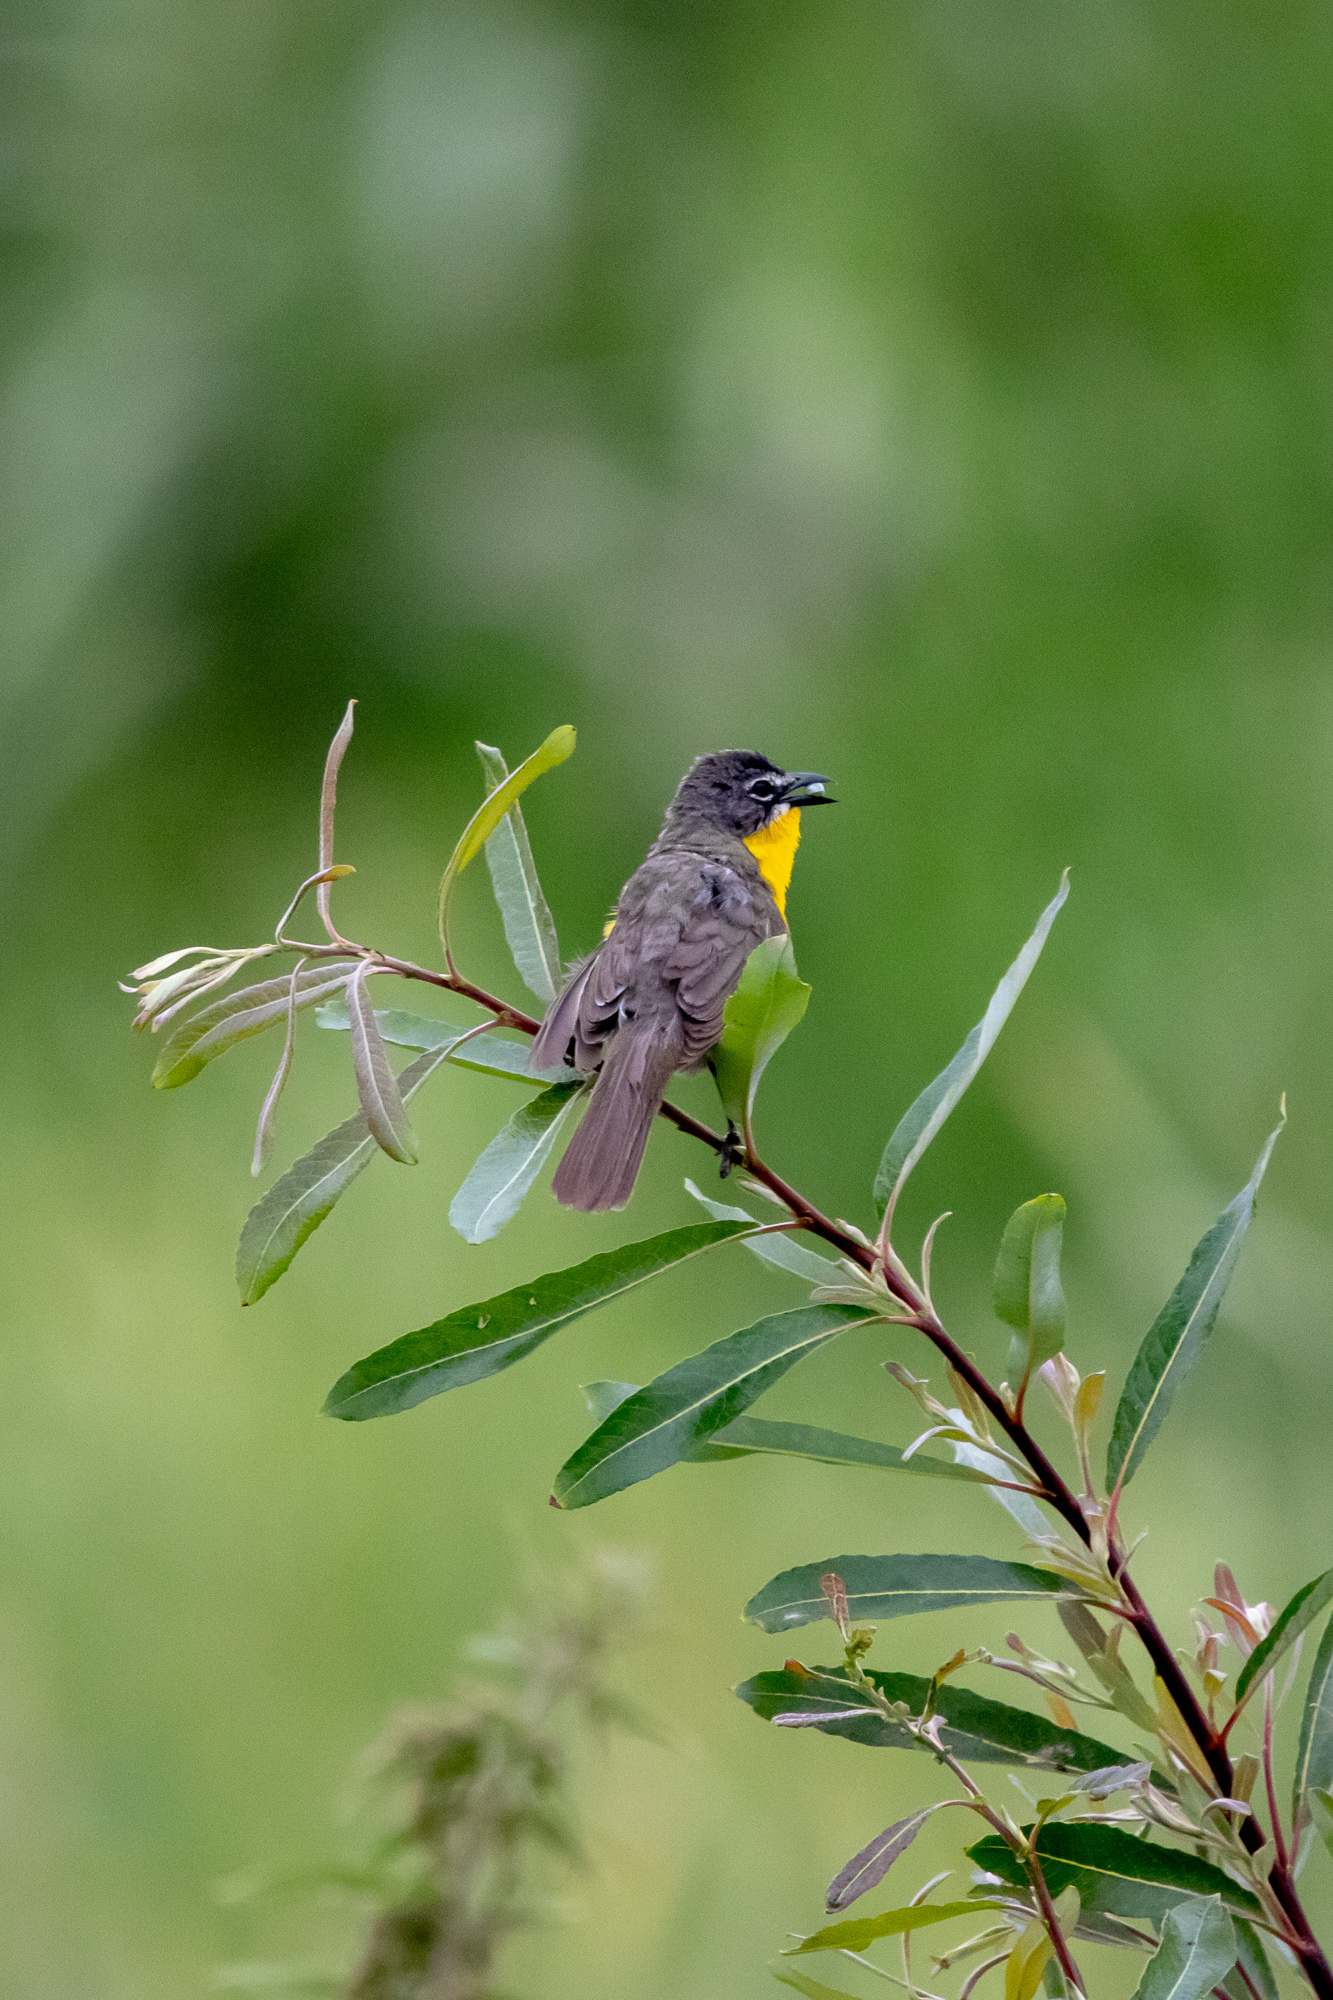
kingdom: Animalia
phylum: Chordata
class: Aves
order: Passeriformes
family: Parulidae
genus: Icteria
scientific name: Icteria virens
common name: Yellow-breasted chat
